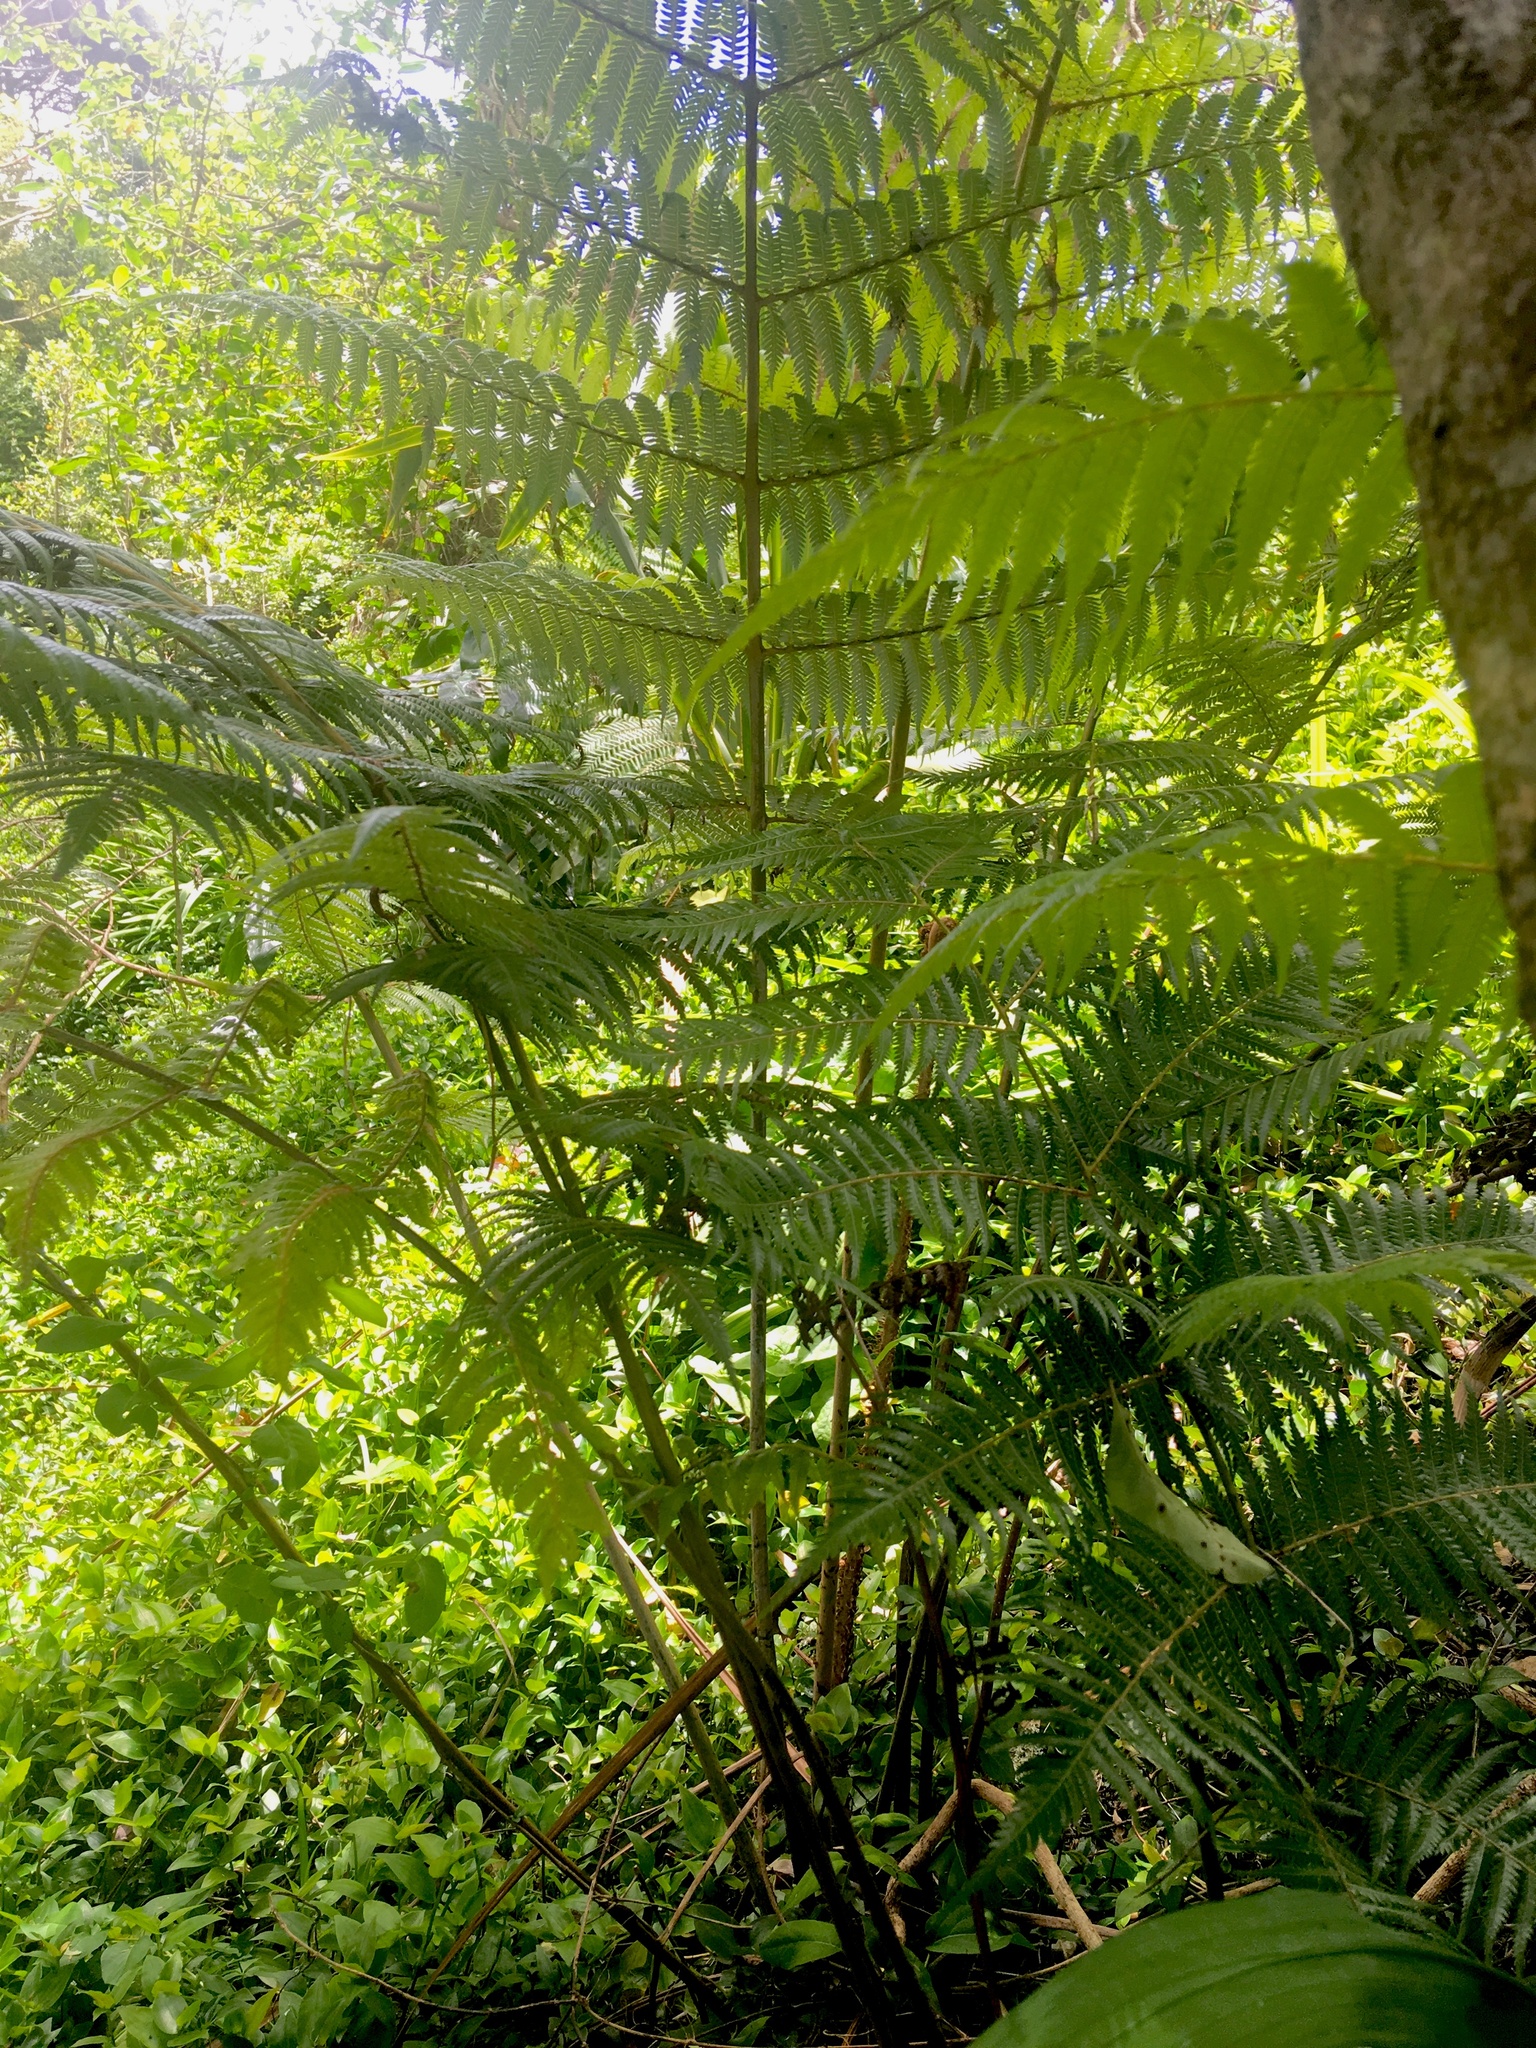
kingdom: Plantae
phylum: Tracheophyta
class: Polypodiopsida
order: Cyatheales
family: Cyatheaceae
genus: Alsophila
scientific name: Alsophila dealbata
